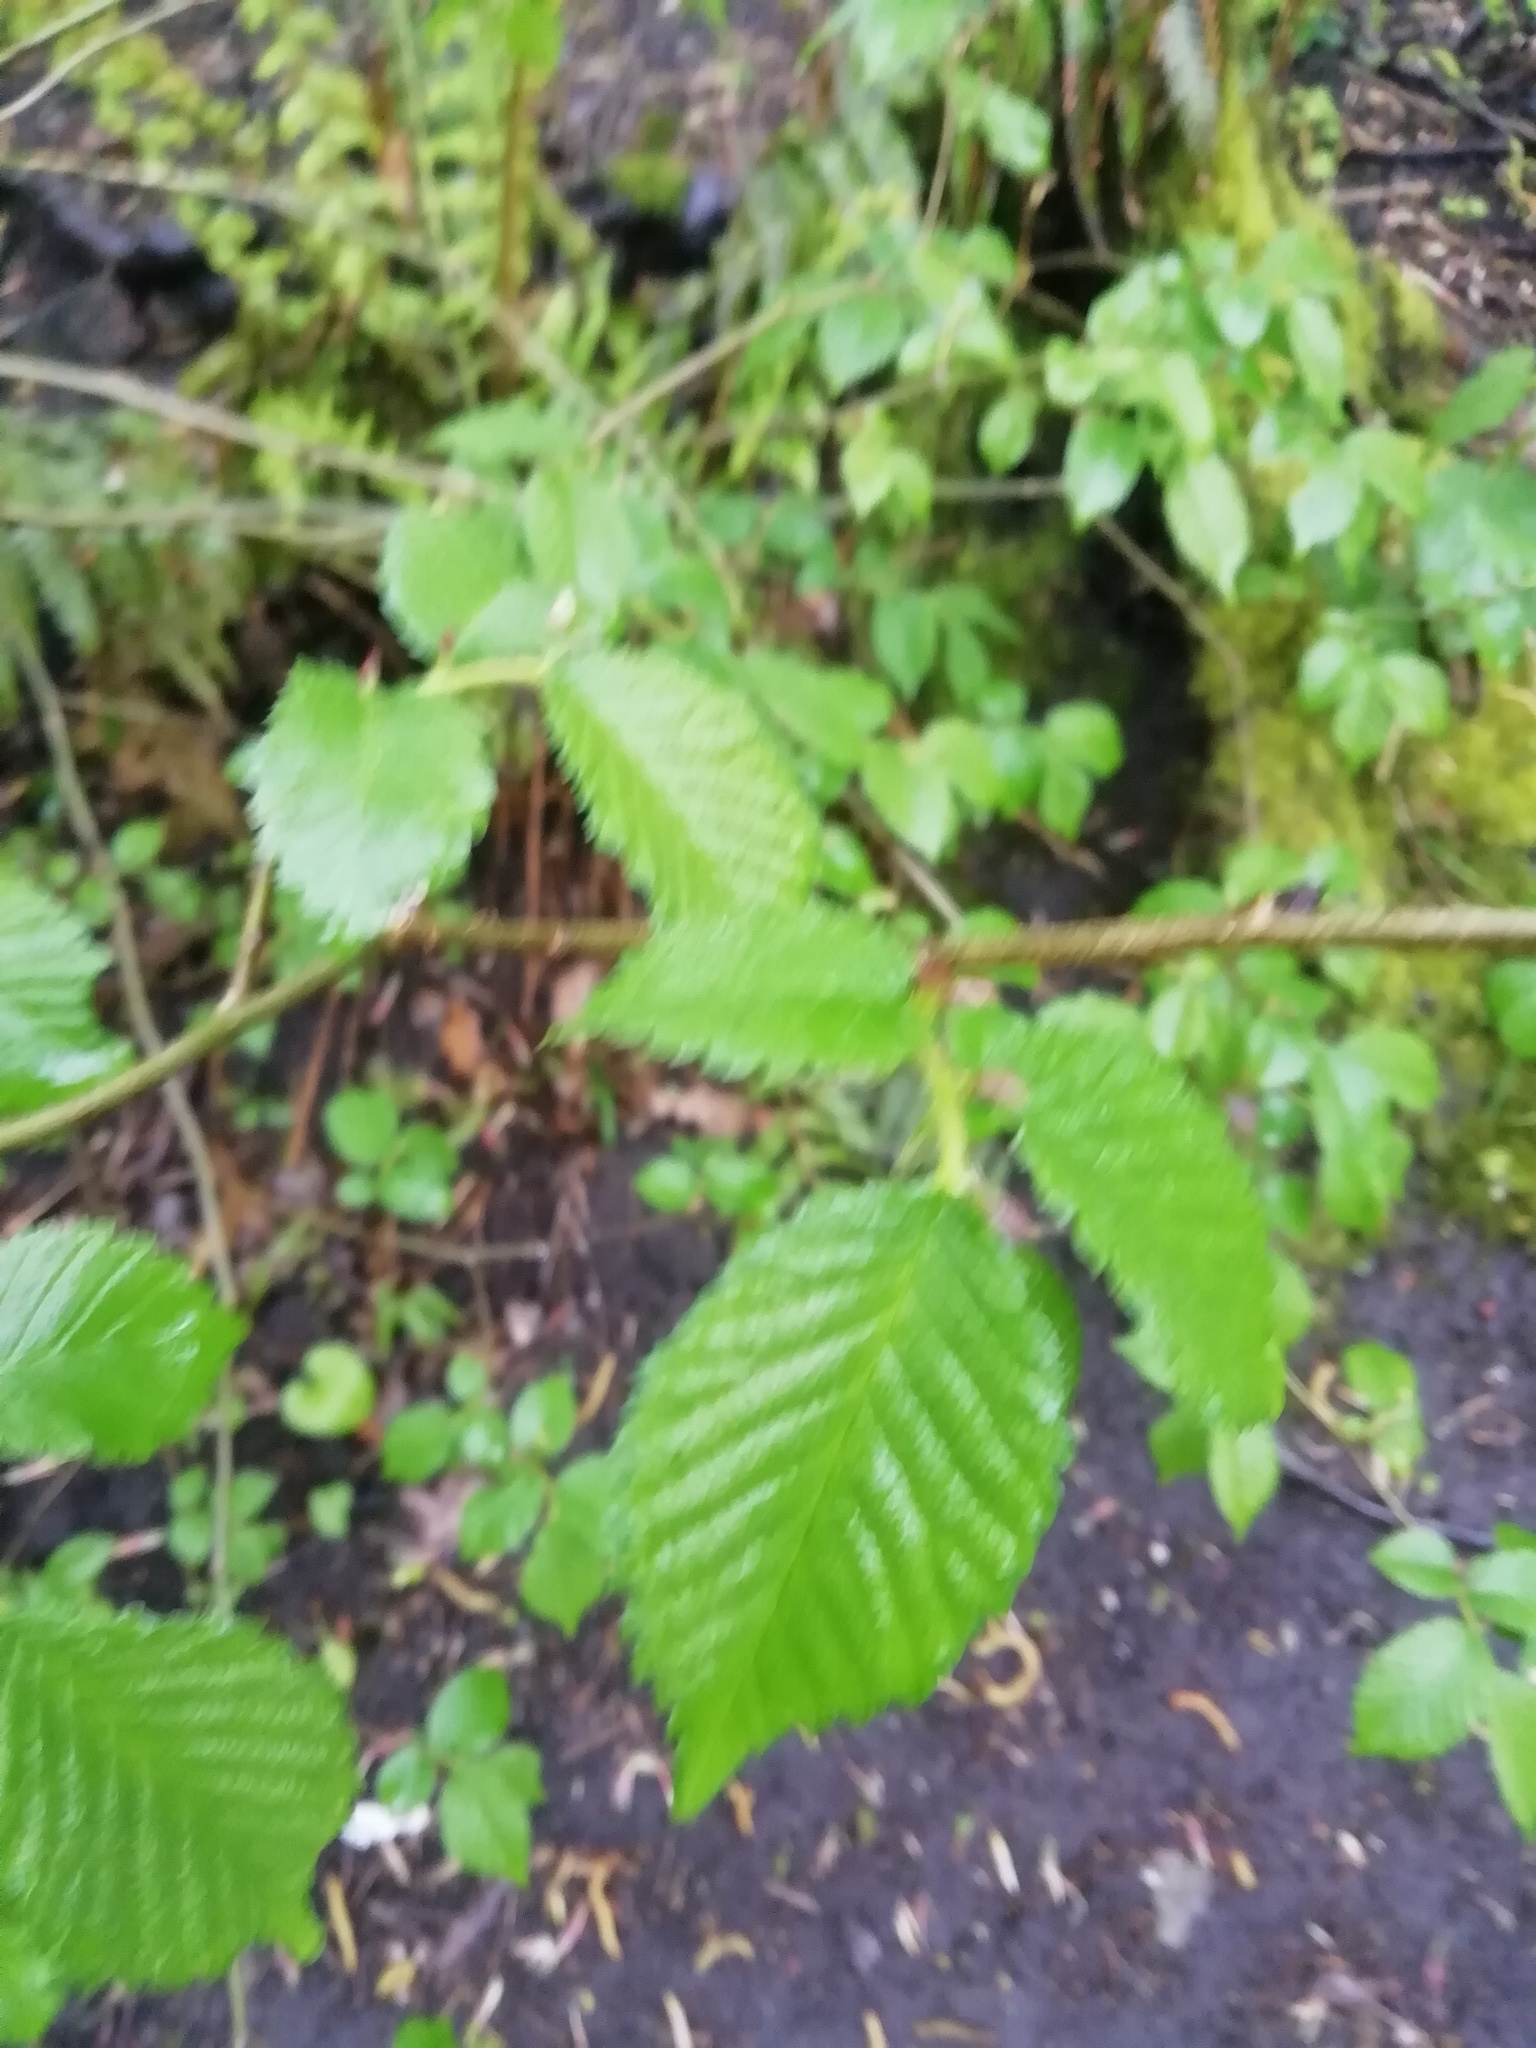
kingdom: Plantae
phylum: Tracheophyta
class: Magnoliopsida
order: Rosales
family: Ulmaceae
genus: Ulmus
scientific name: Ulmus glabra
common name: Wych elm
